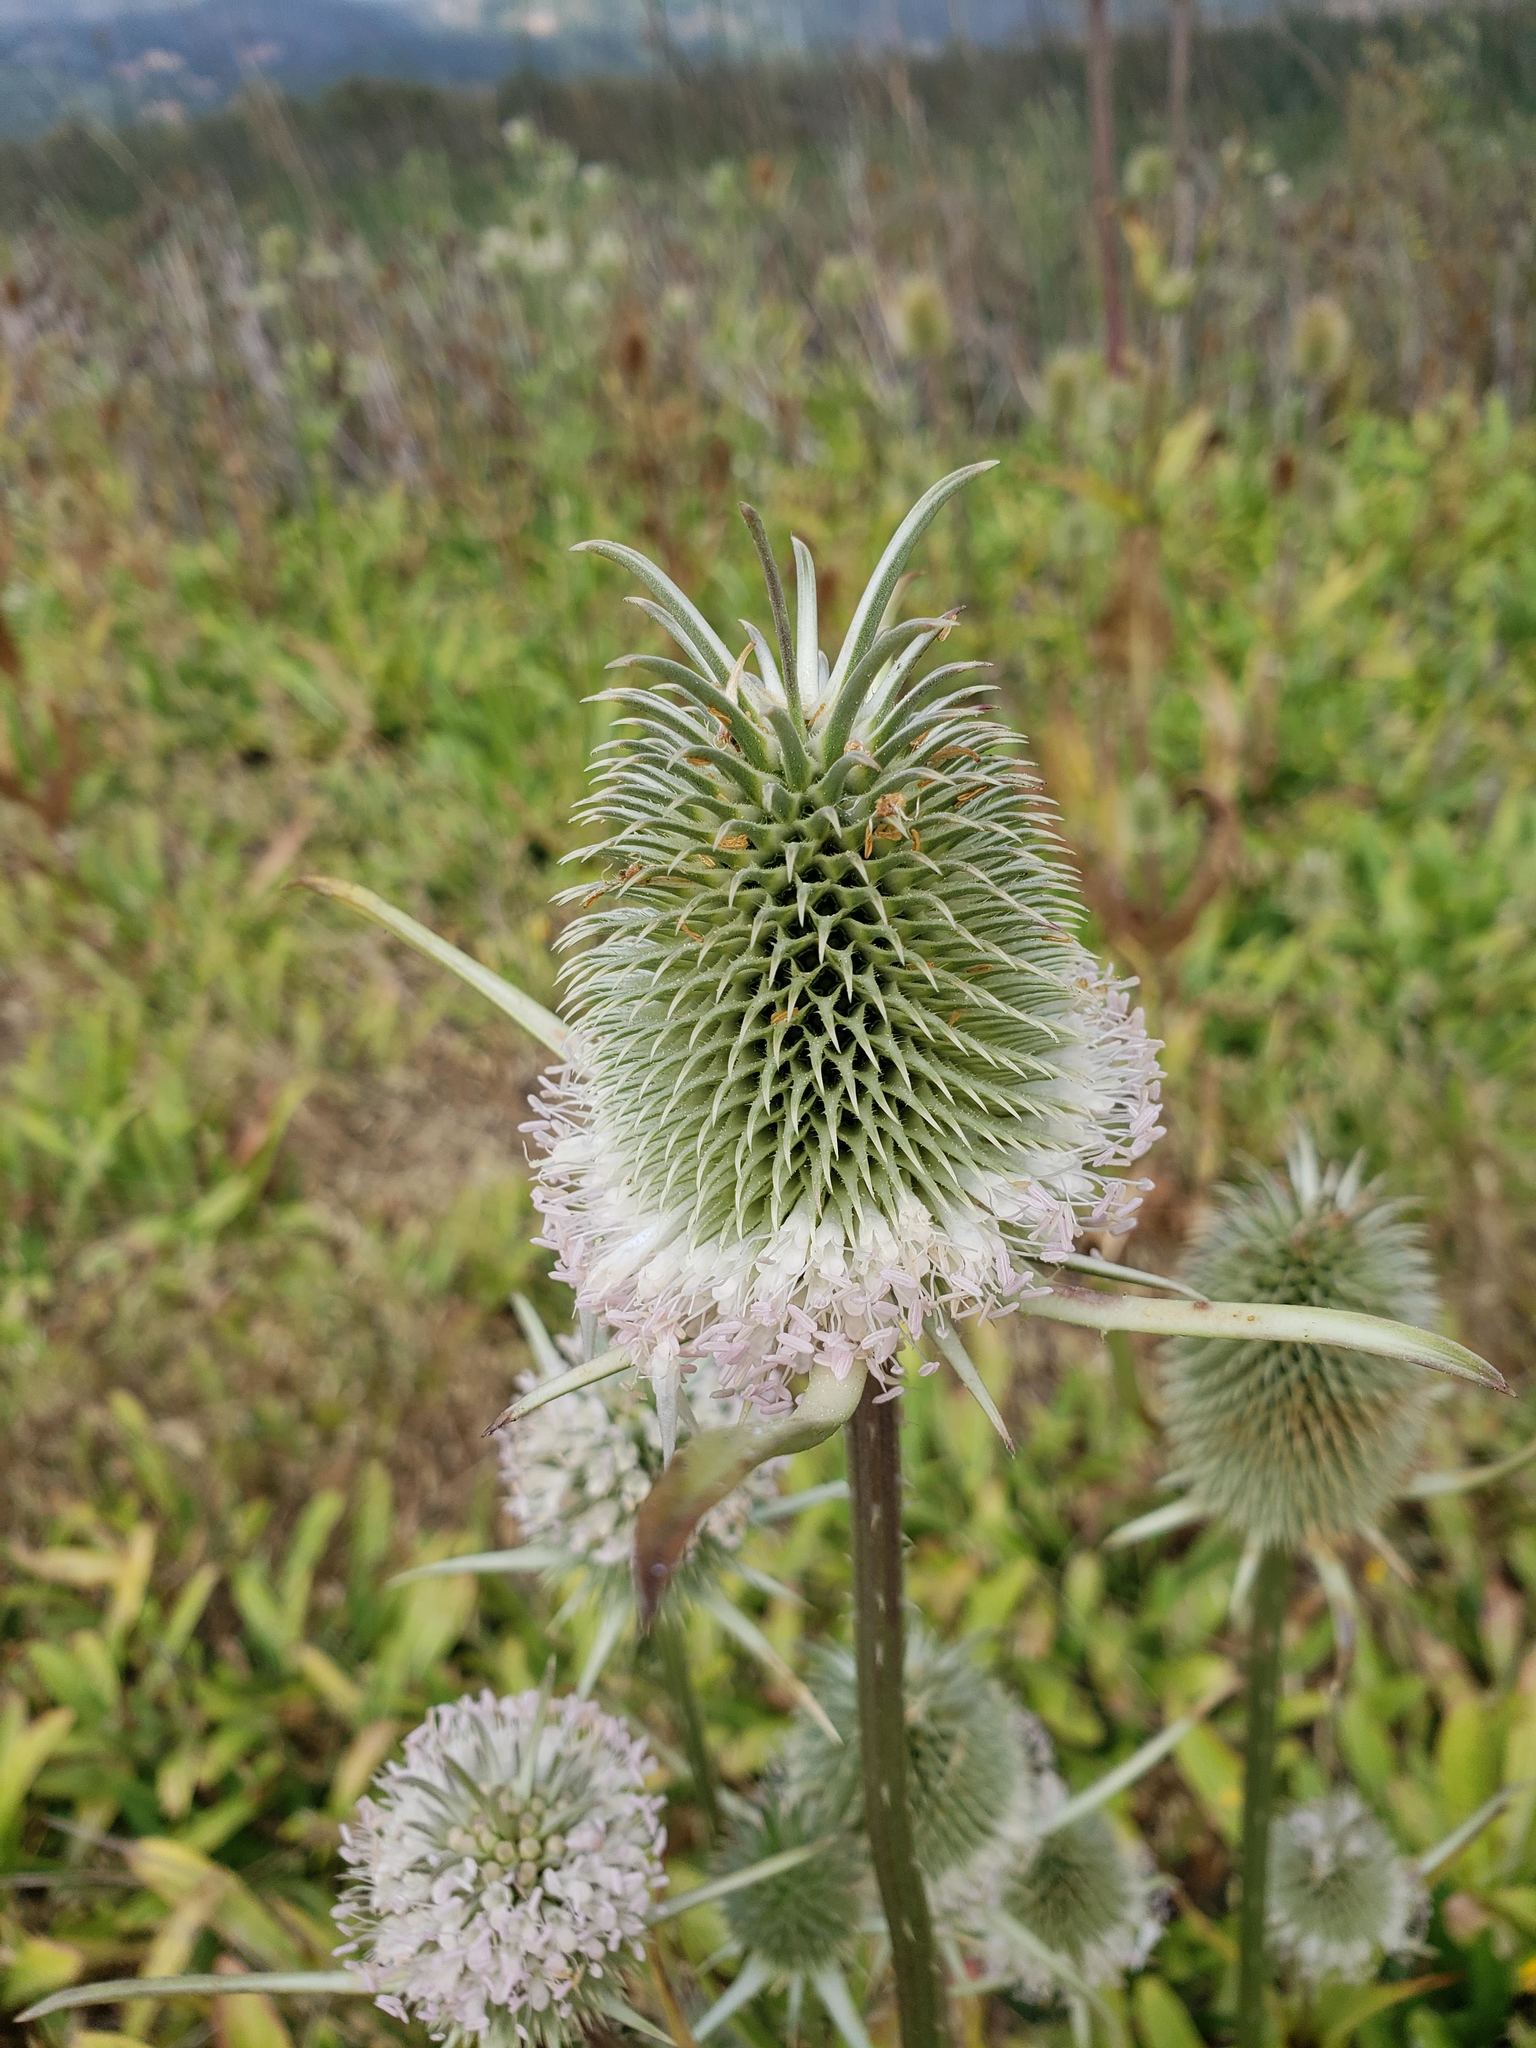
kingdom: Plantae
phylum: Tracheophyta
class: Magnoliopsida
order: Dipsacales
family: Caprifoliaceae
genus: Dipsacus
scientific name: Dipsacus sativus
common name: Fuller's teasel
